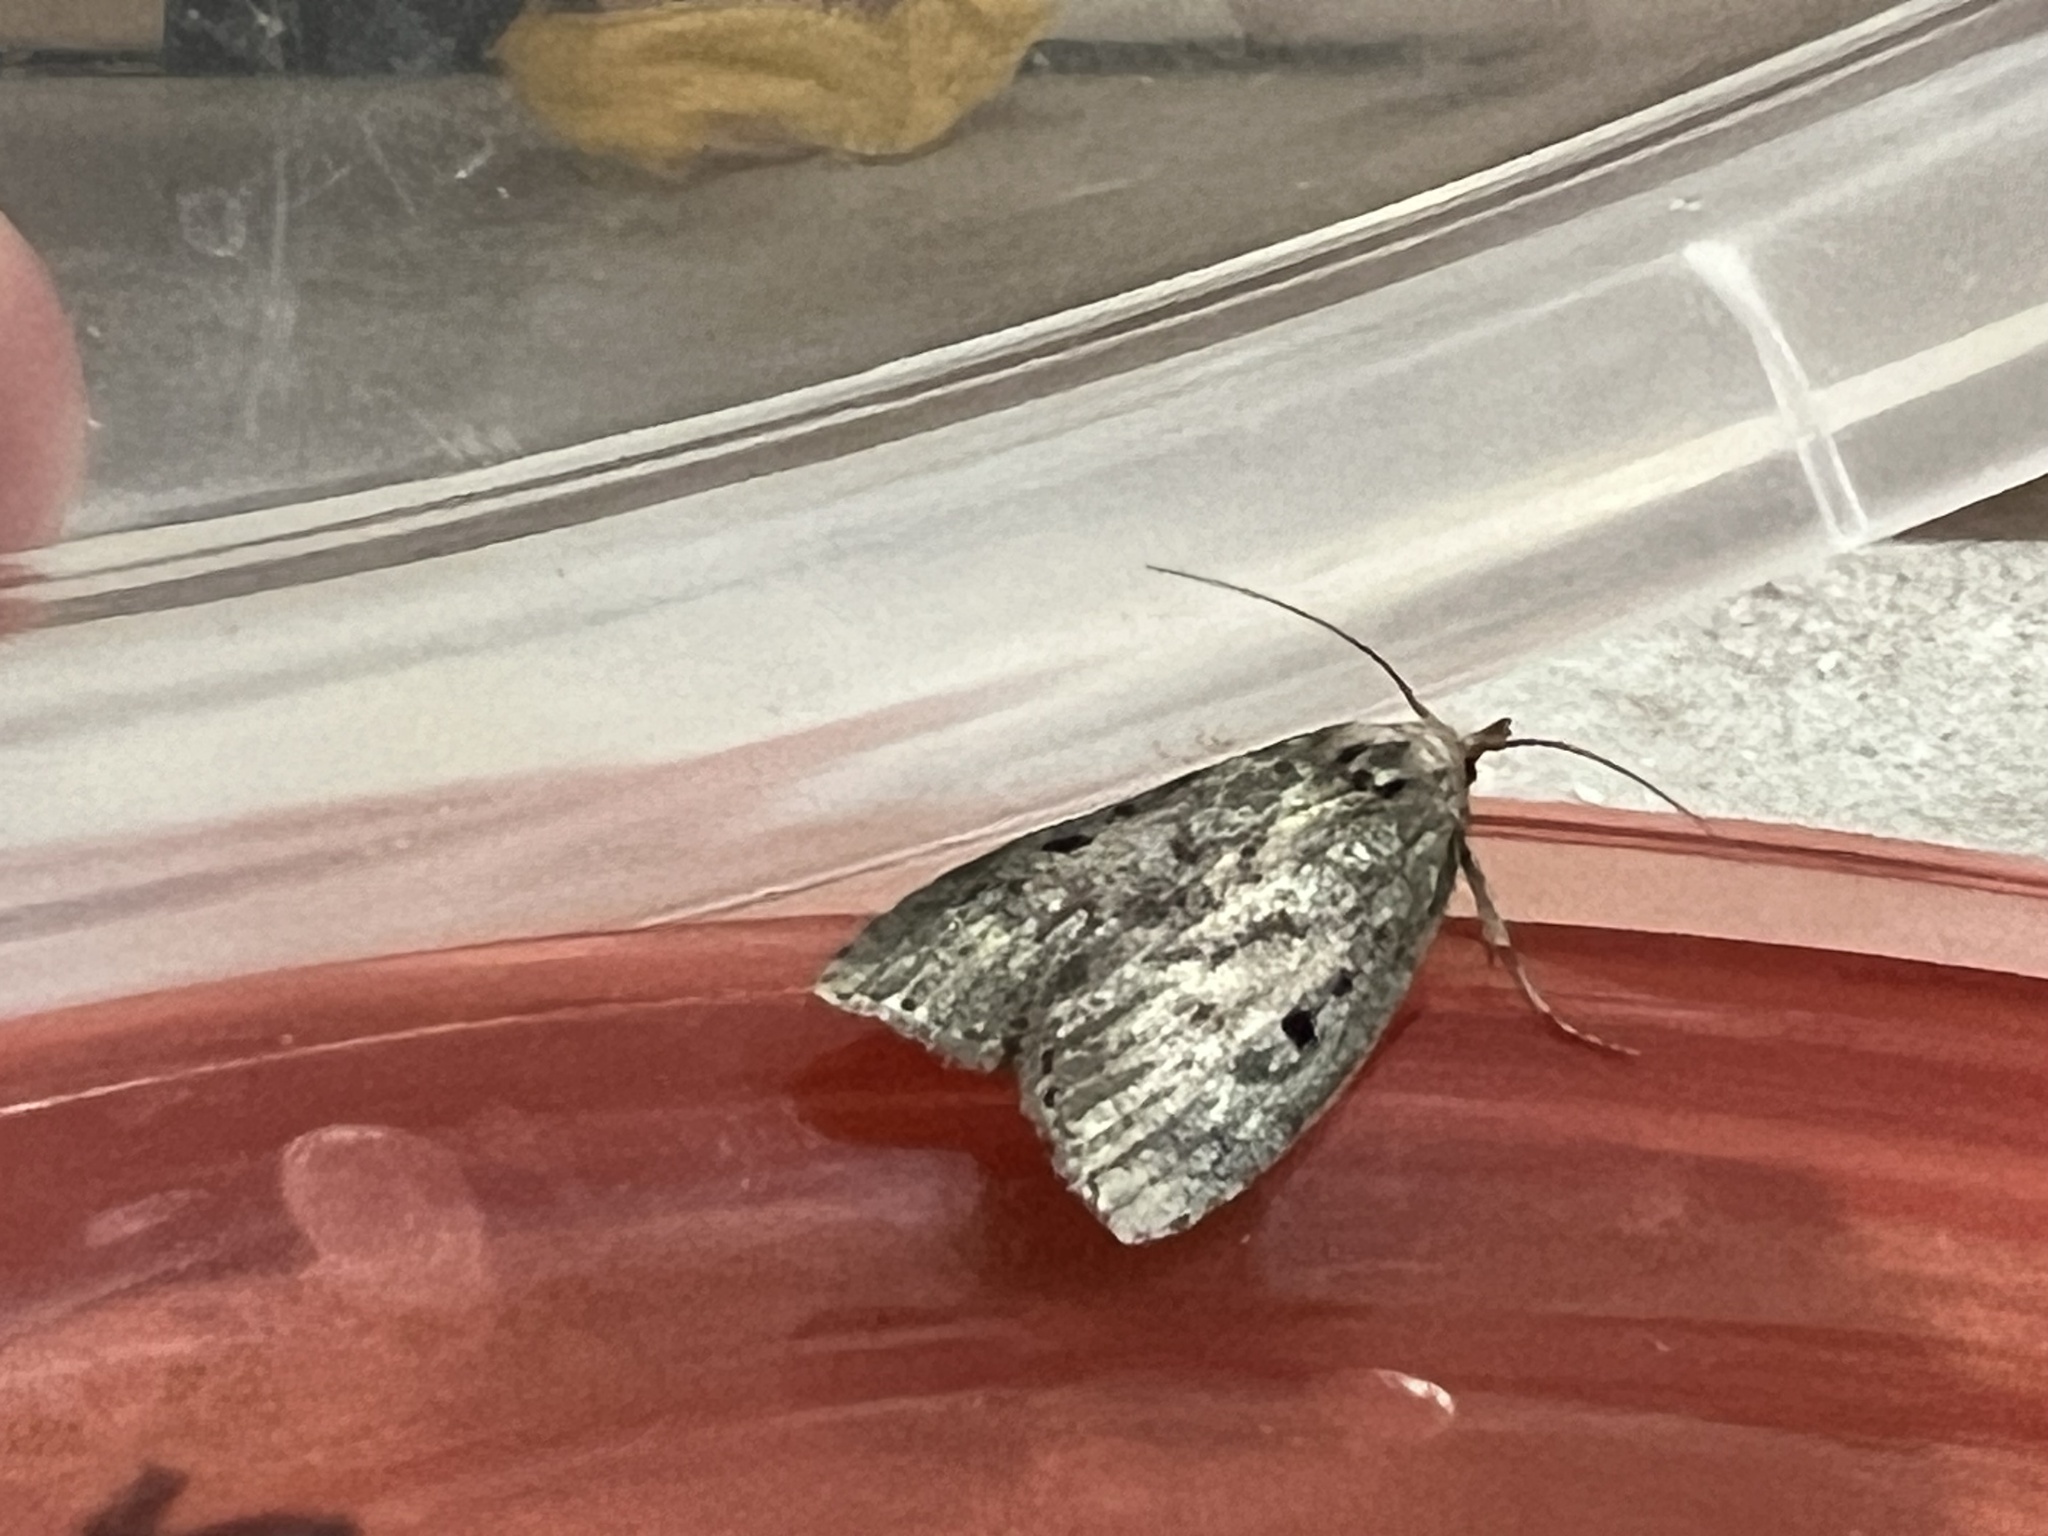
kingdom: Animalia
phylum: Arthropoda
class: Insecta
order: Lepidoptera
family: Pyralidae
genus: Aphomia
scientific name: Aphomia sociella
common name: Bee moth
